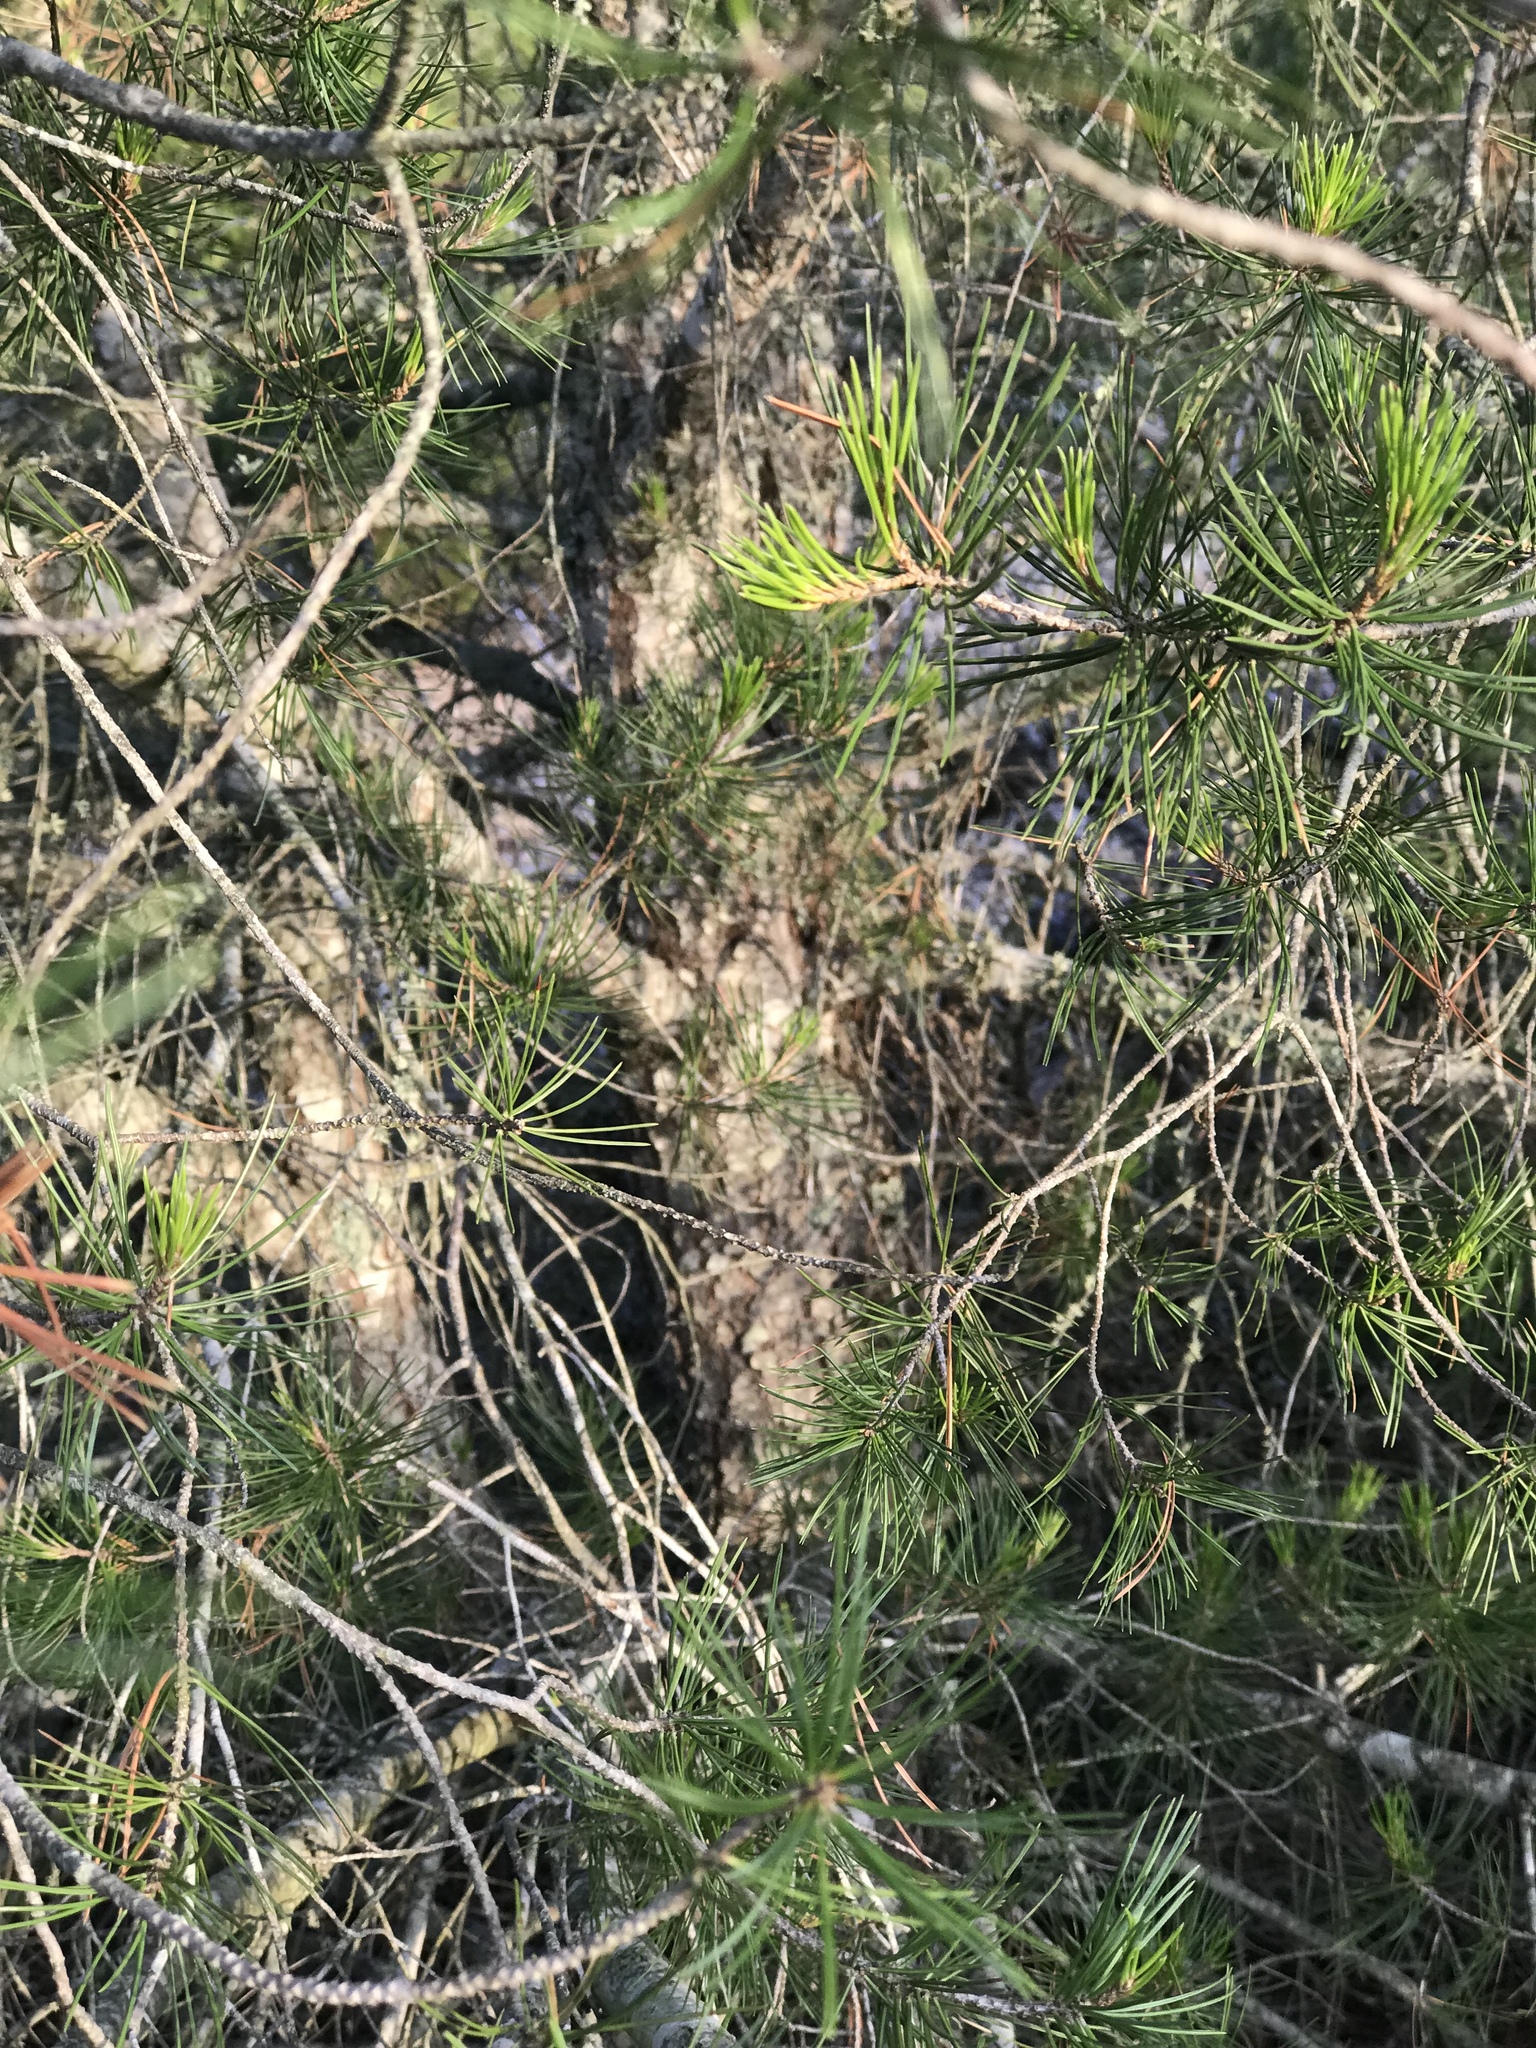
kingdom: Plantae
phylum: Tracheophyta
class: Pinopsida
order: Pinales
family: Pinaceae
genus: Pinus
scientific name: Pinus remota
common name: Nut pine
